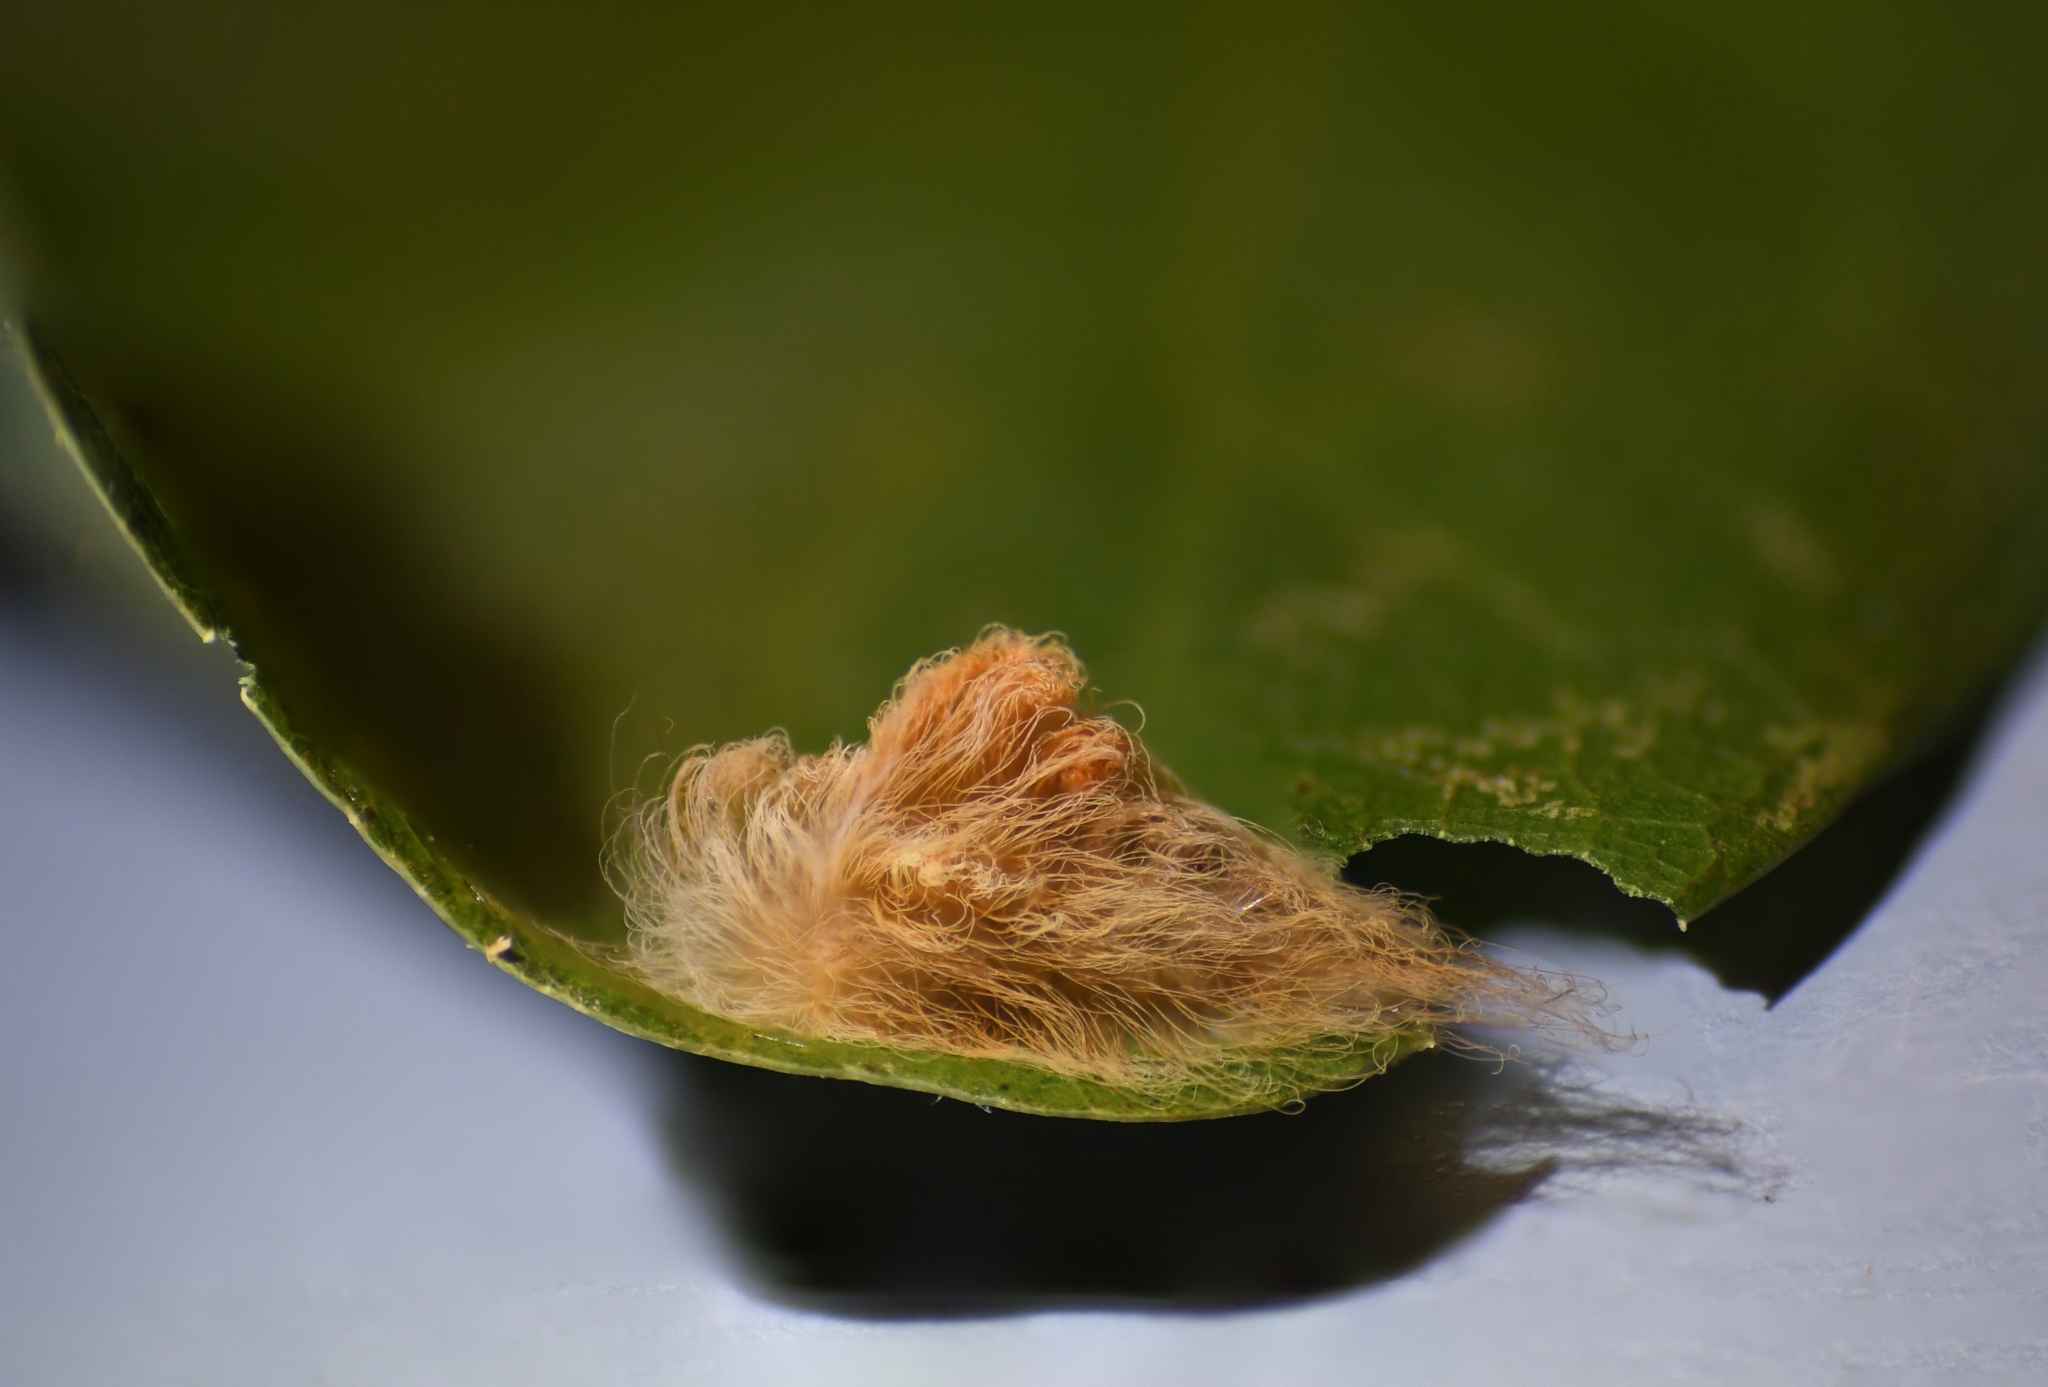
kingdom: Animalia
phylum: Arthropoda
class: Insecta
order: Lepidoptera
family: Megalopygidae
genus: Megalopyge
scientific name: Megalopyge opercularis
